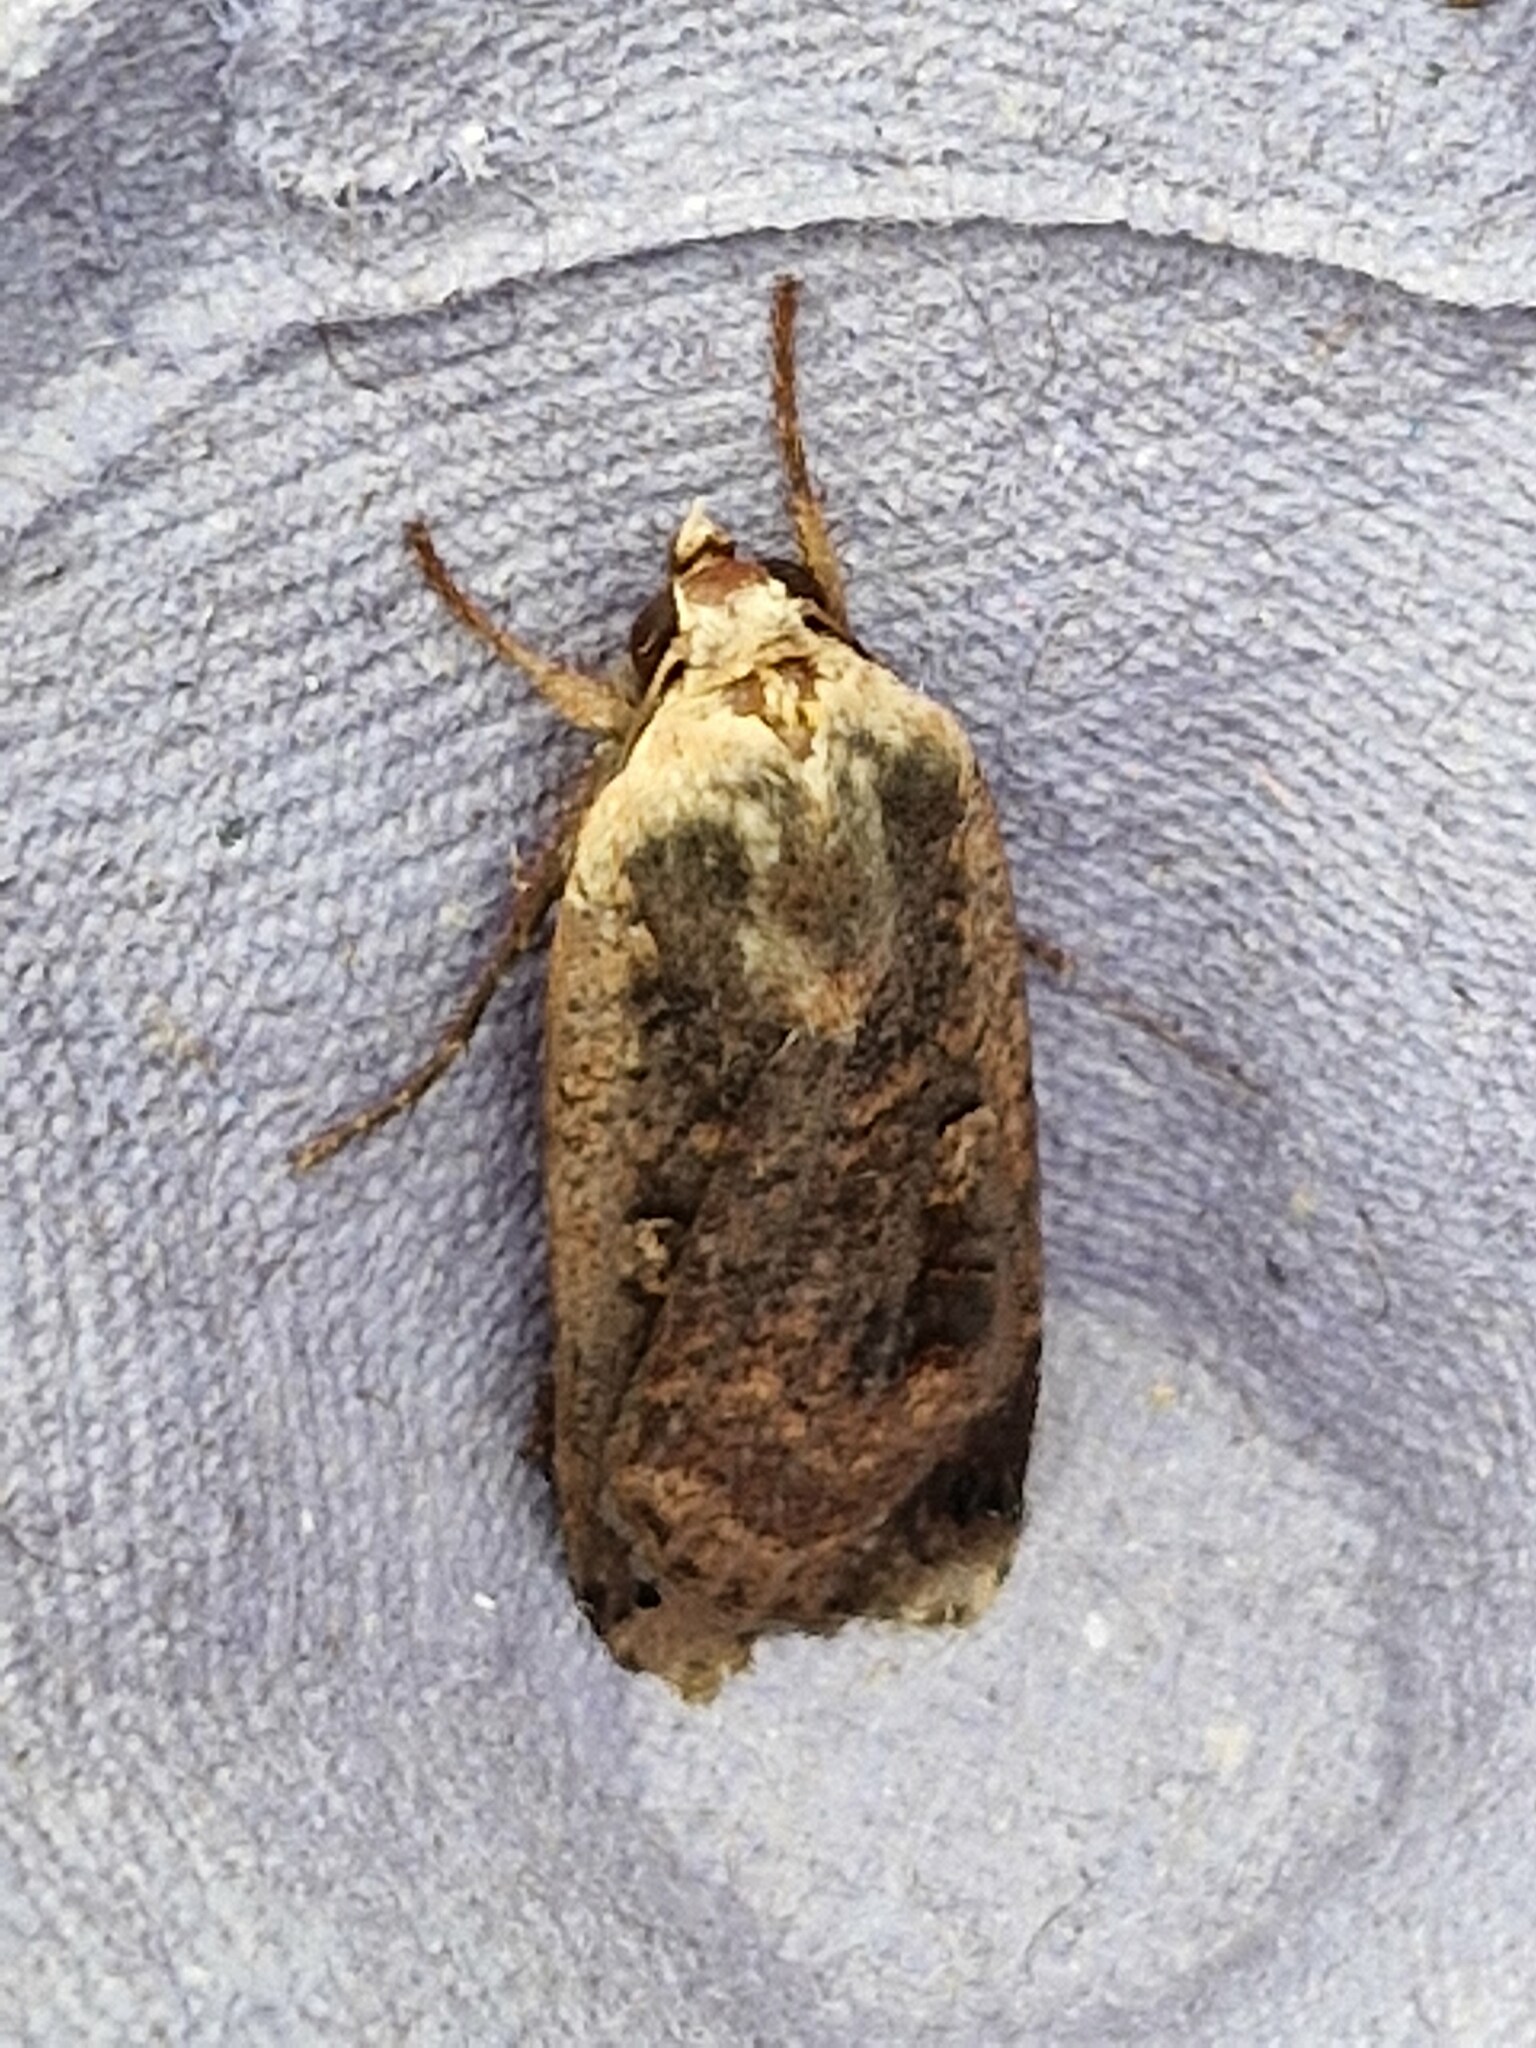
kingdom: Animalia
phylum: Arthropoda
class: Insecta
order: Lepidoptera
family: Noctuidae
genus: Noctua
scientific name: Noctua pronuba
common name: Large yellow underwing
